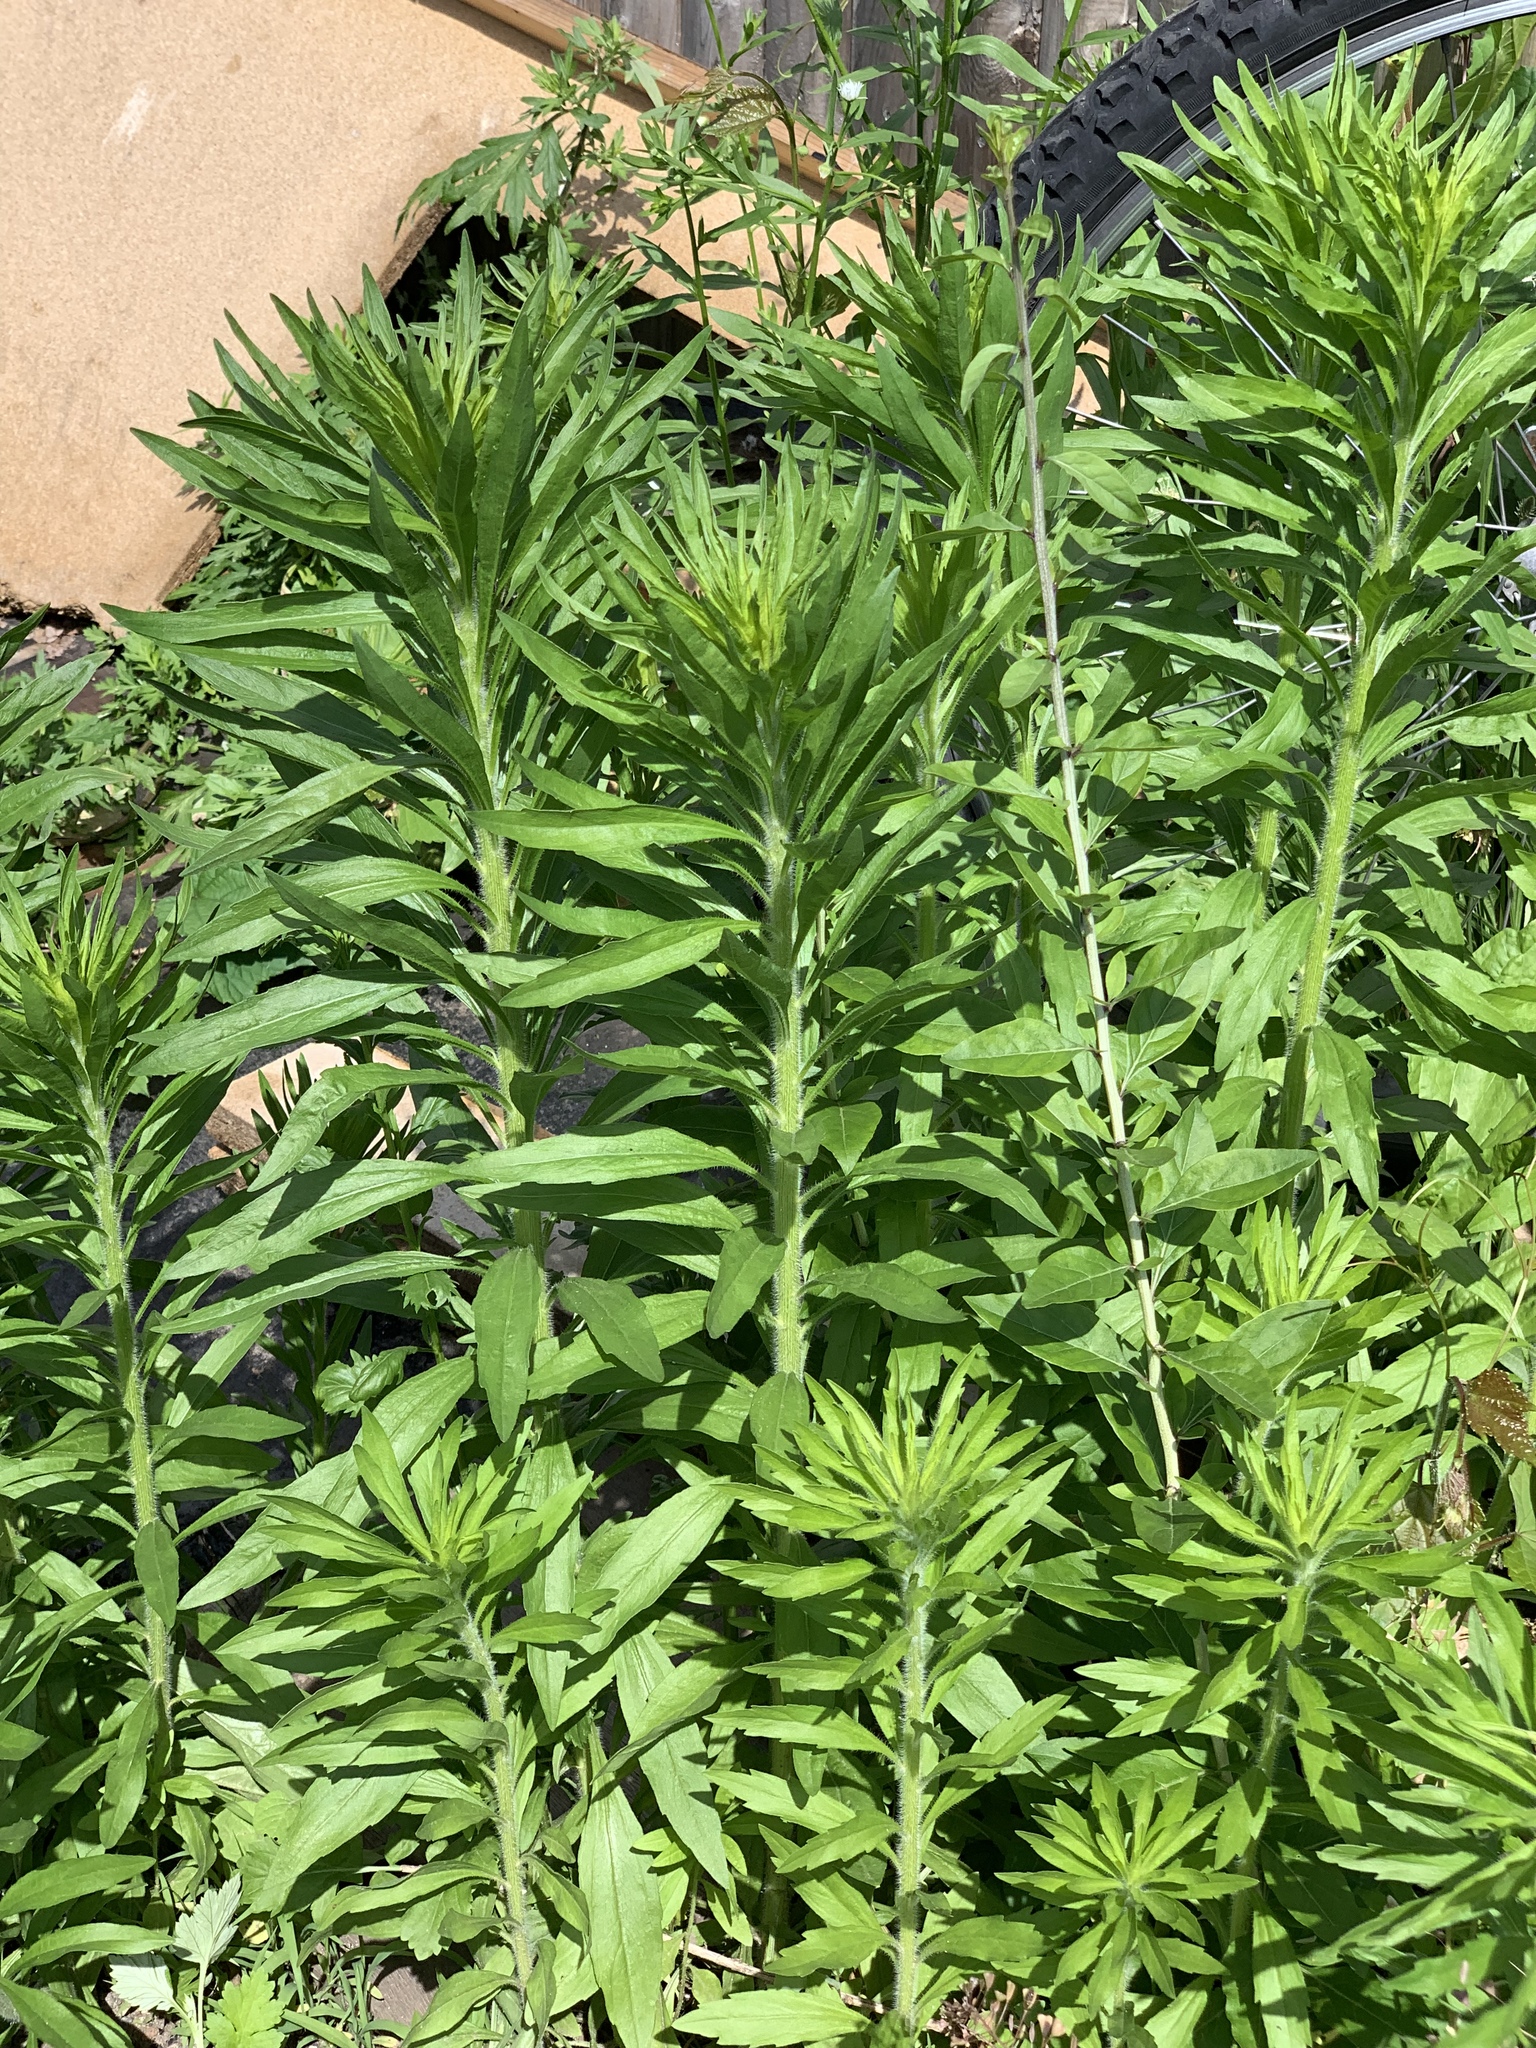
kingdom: Plantae
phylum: Tracheophyta
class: Magnoliopsida
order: Asterales
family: Asteraceae
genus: Erigeron
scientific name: Erigeron canadensis
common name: Canadian fleabane
